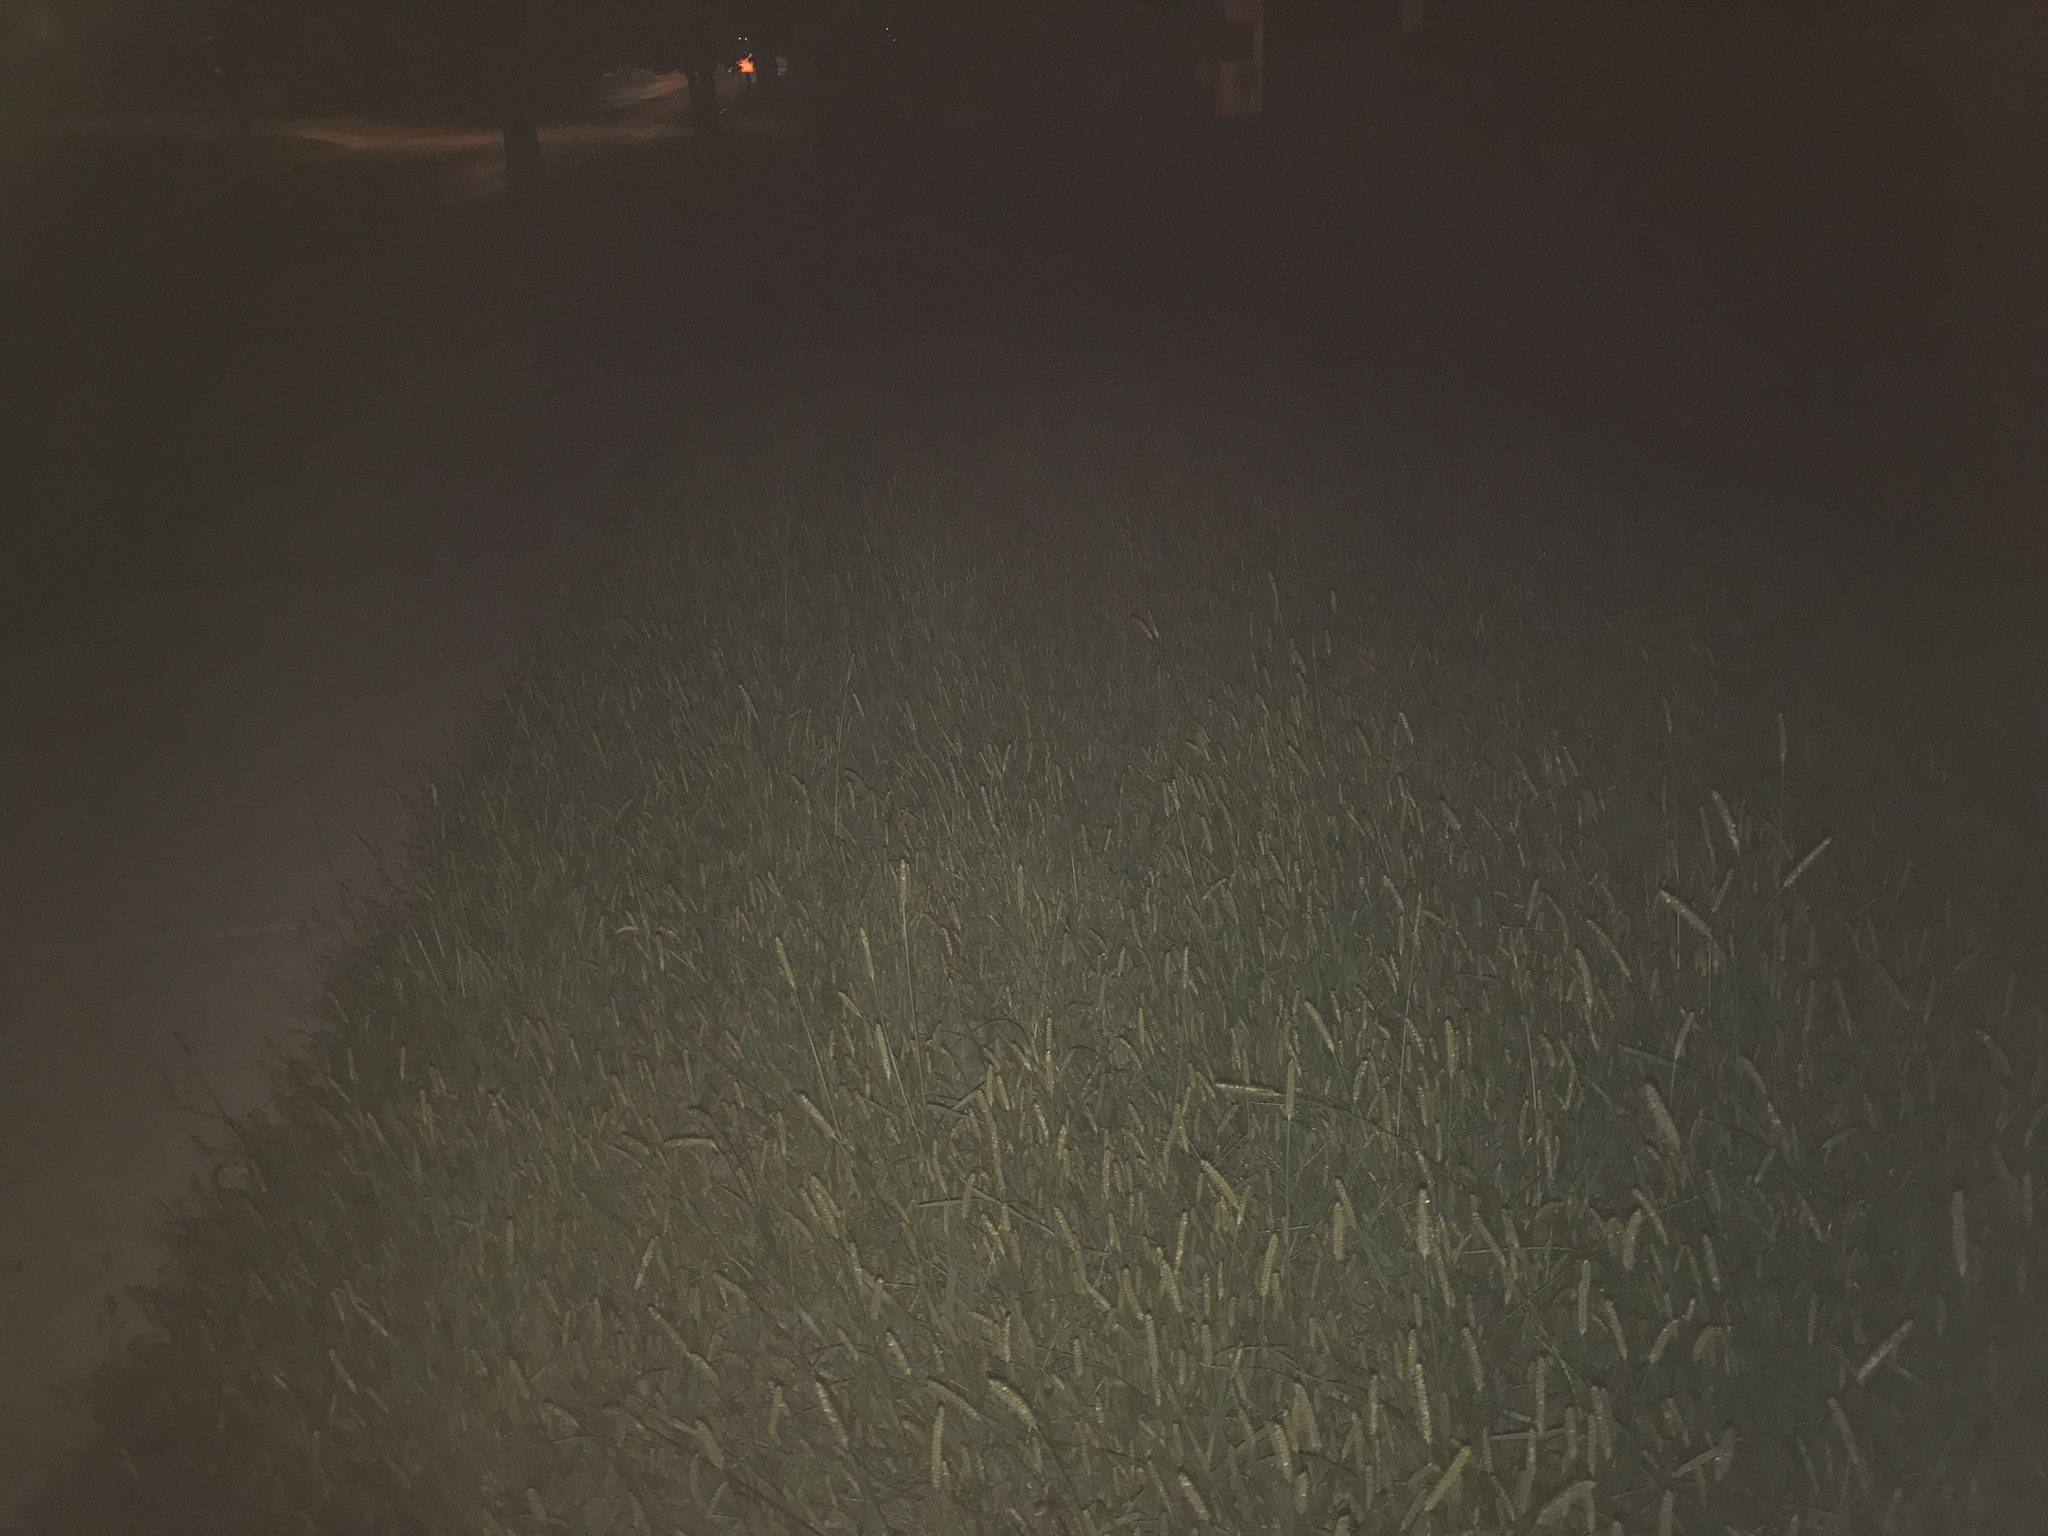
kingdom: Plantae
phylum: Tracheophyta
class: Liliopsida
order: Poales
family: Poaceae
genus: Setaria
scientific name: Setaria pumila
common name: Yellow bristle-grass
